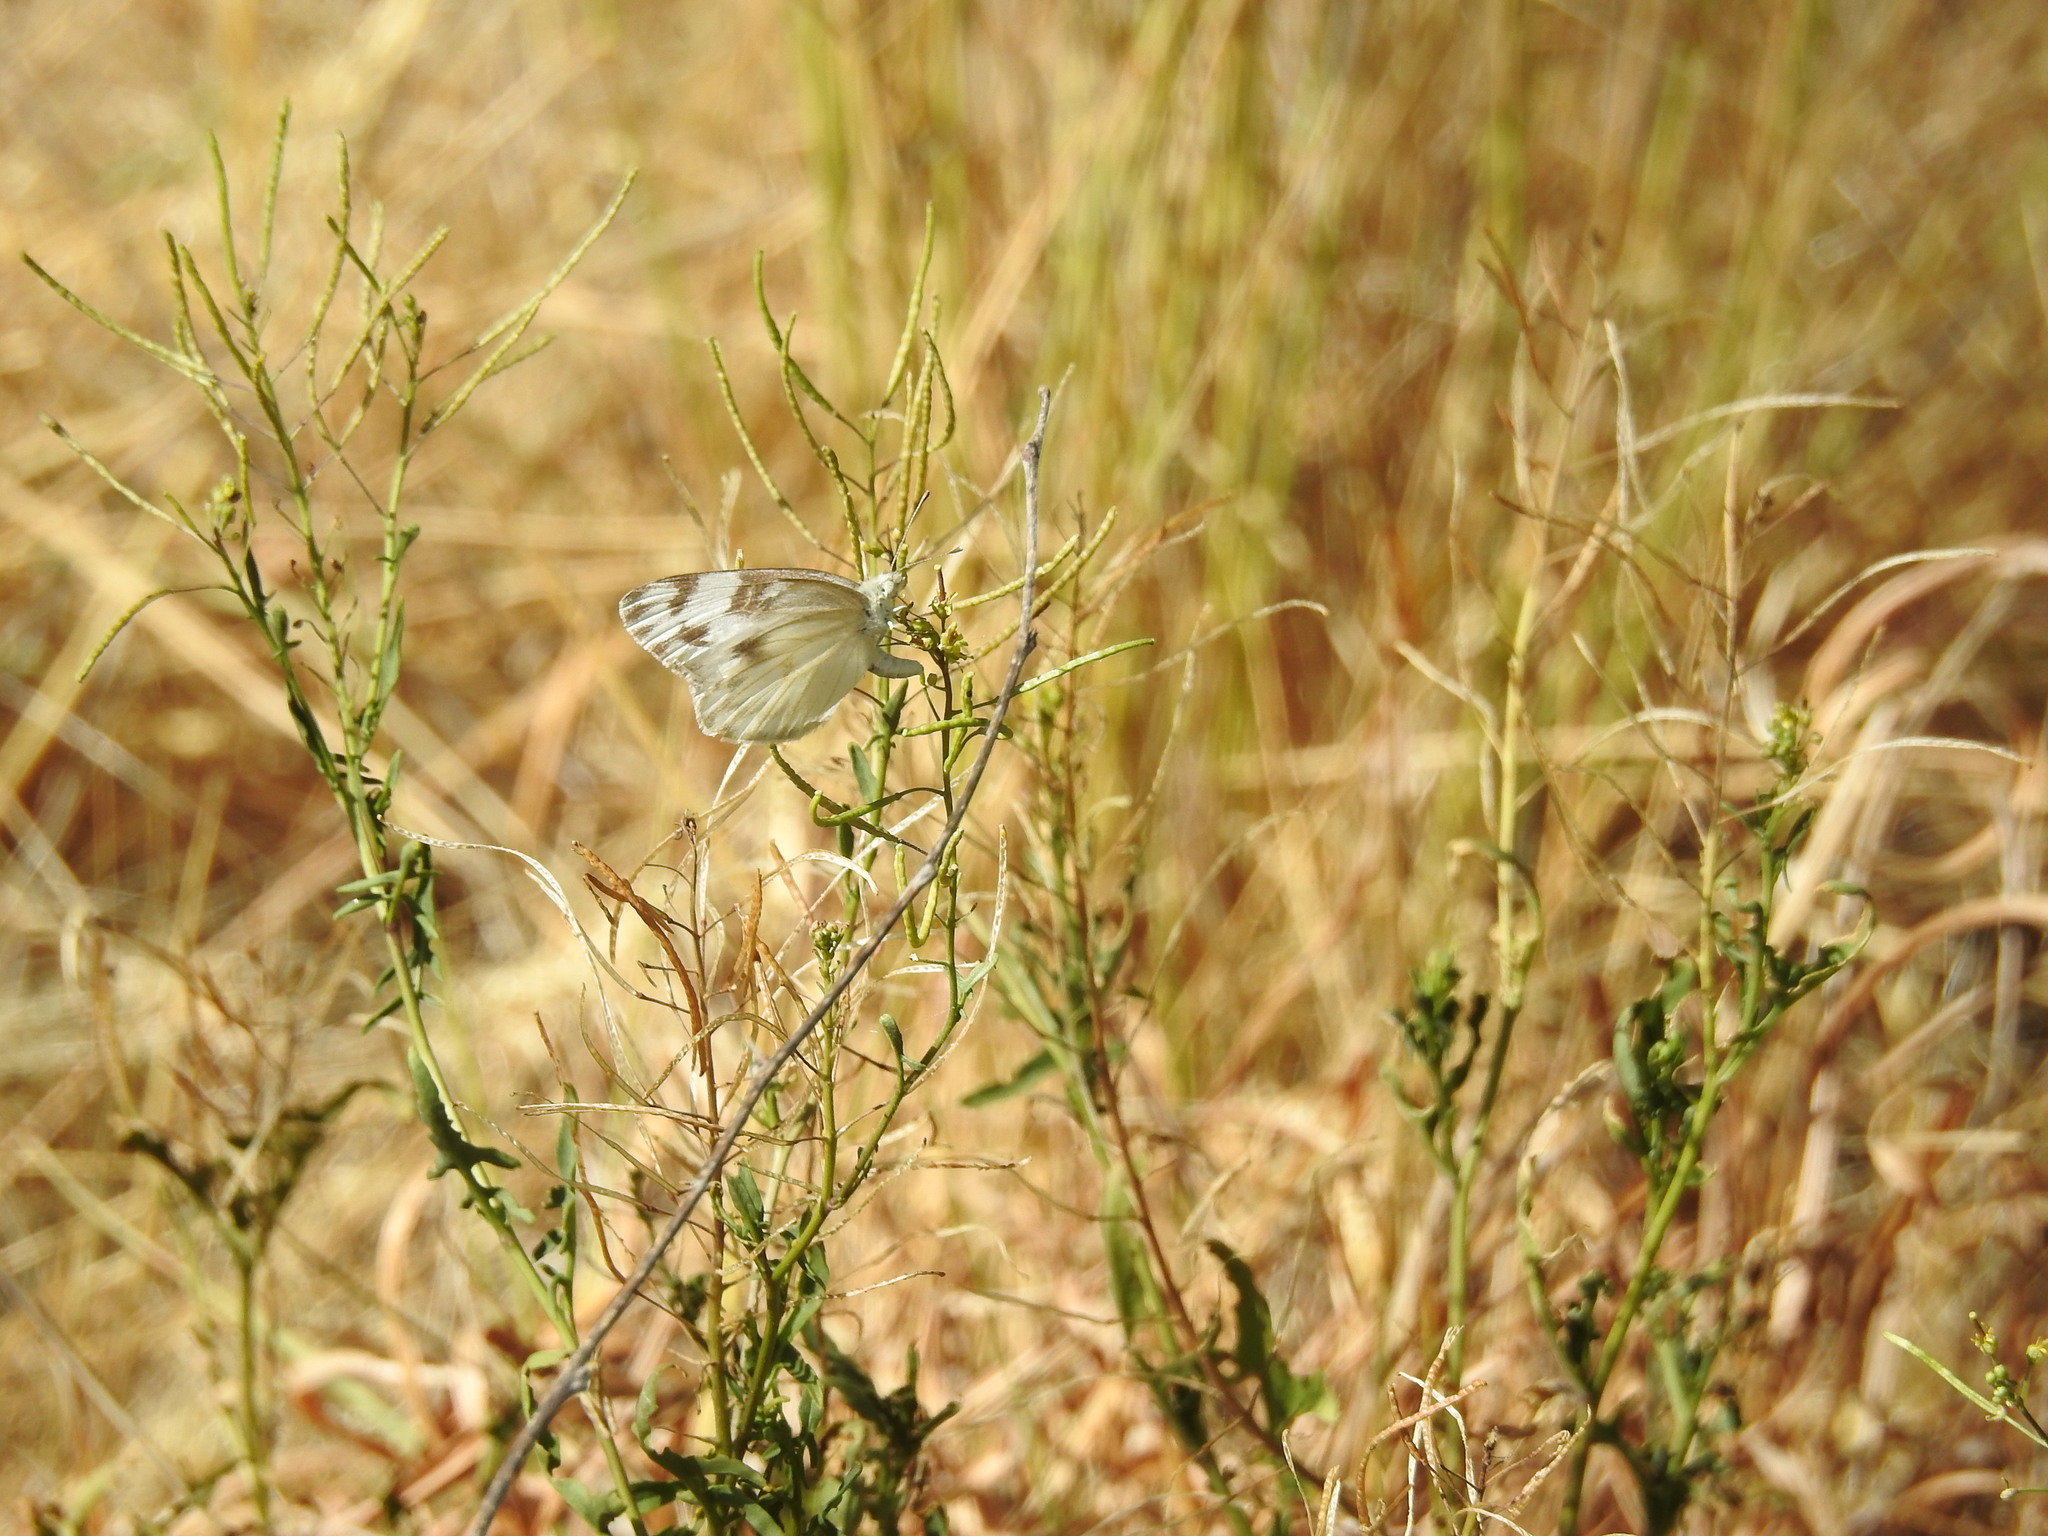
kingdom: Animalia
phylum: Arthropoda
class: Insecta
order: Lepidoptera
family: Pieridae
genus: Pontia
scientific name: Pontia protodice
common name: Checkered white
